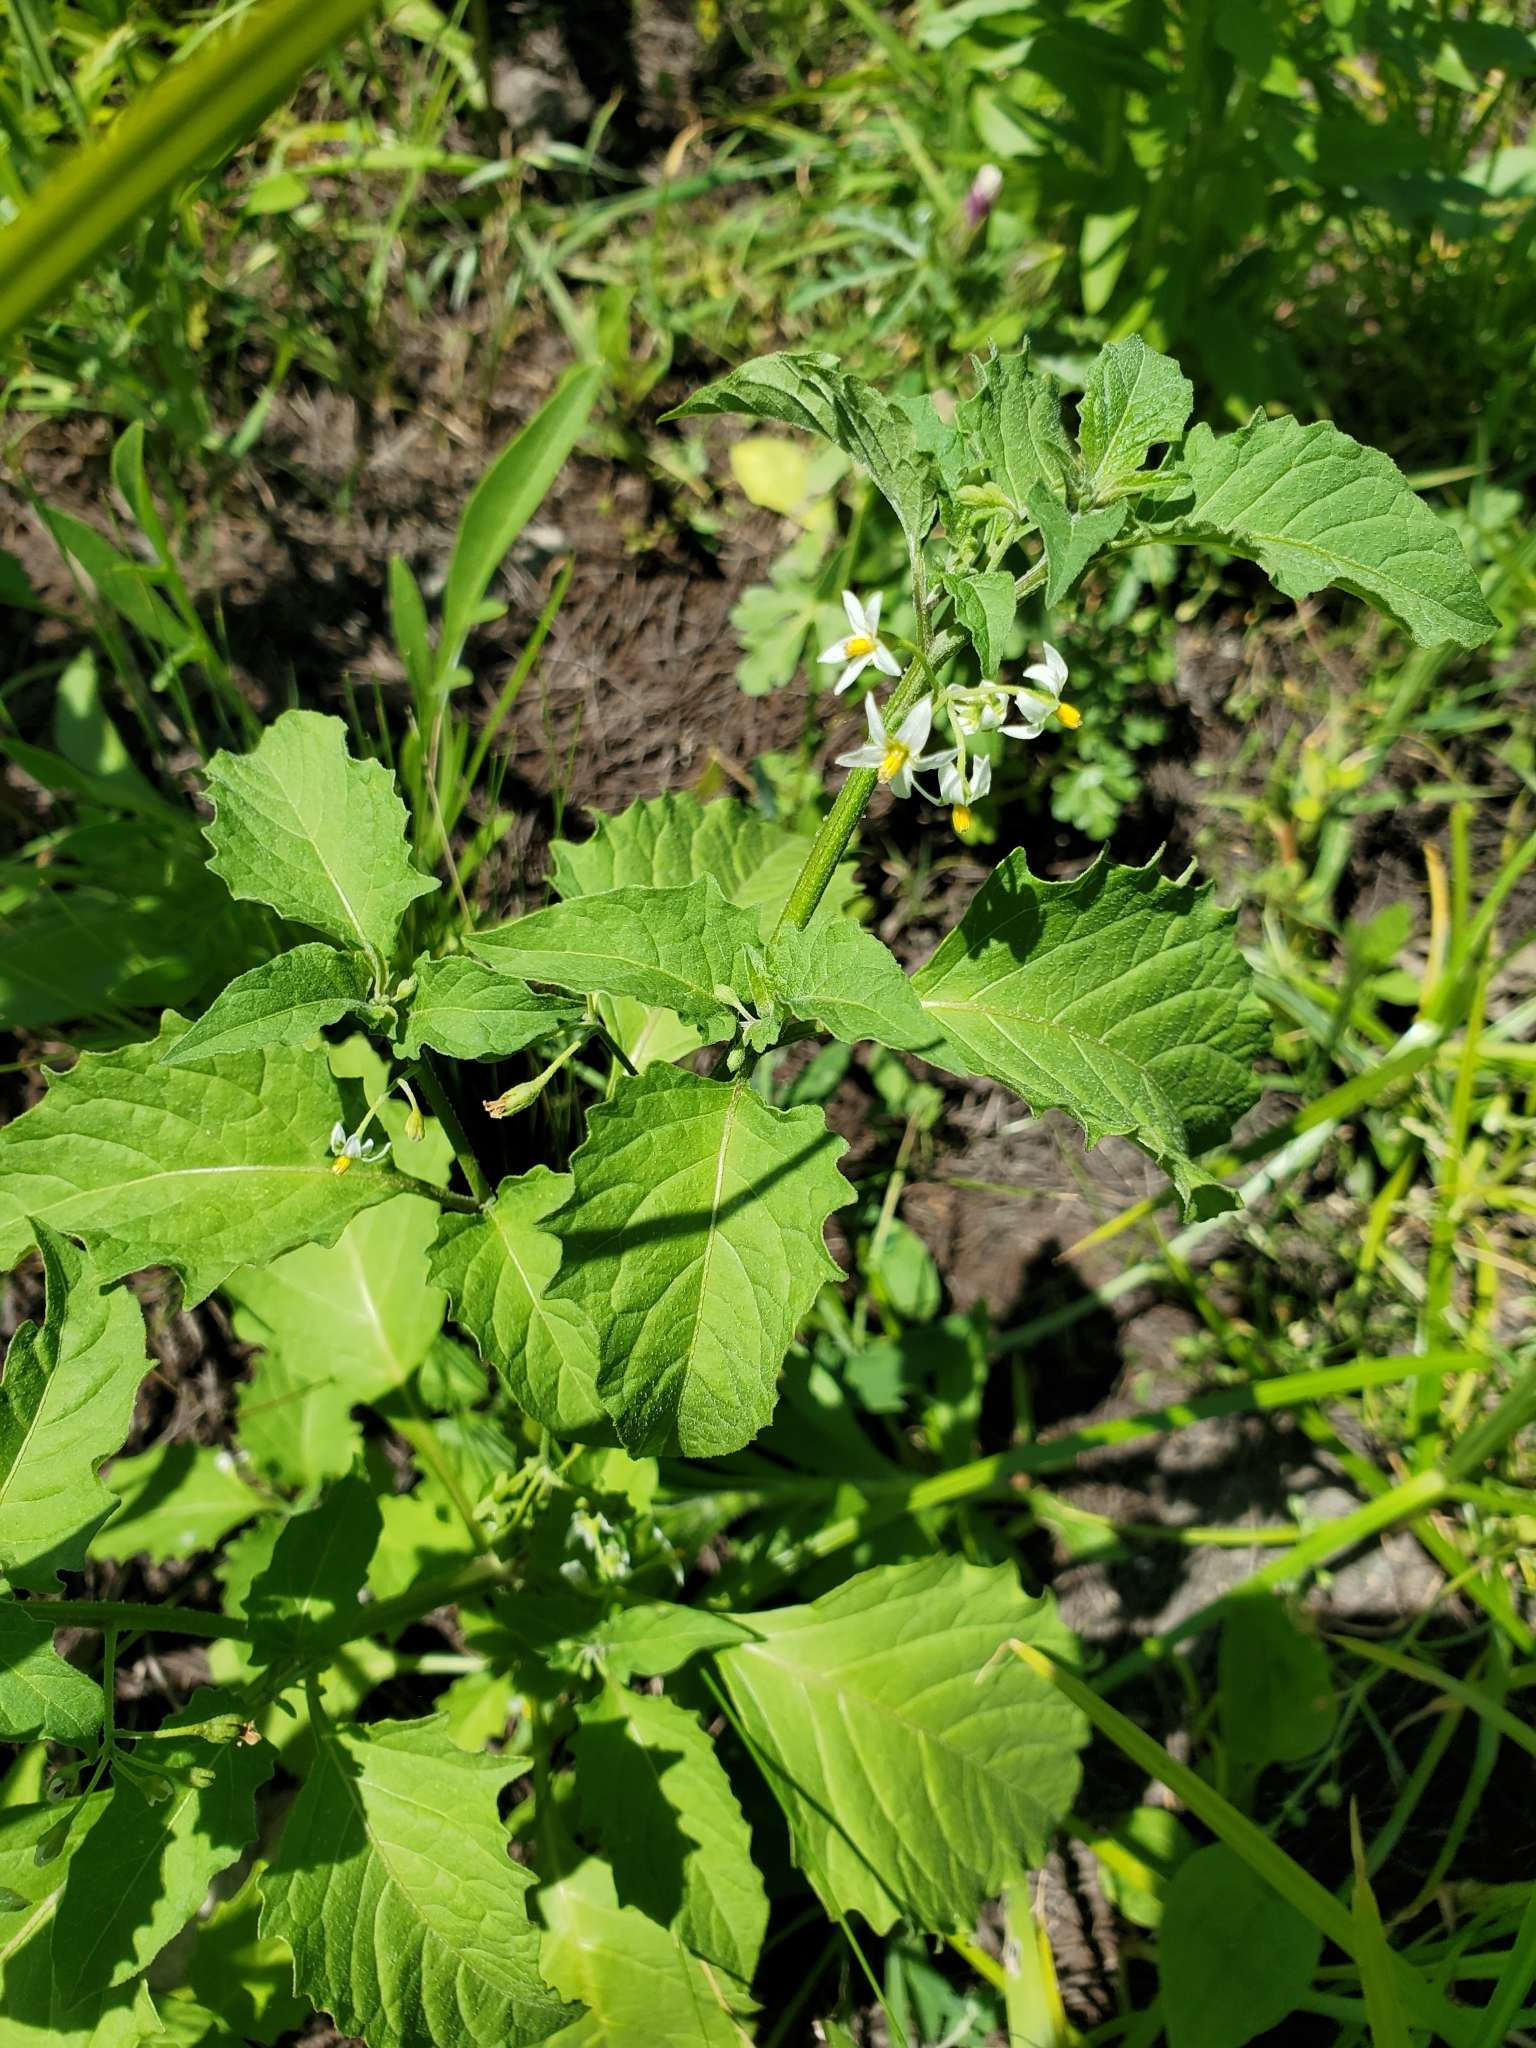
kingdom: Plantae
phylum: Tracheophyta
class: Magnoliopsida
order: Solanales
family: Solanaceae
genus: Solanum
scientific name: Solanum emulans
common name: Eastern black nightshade
